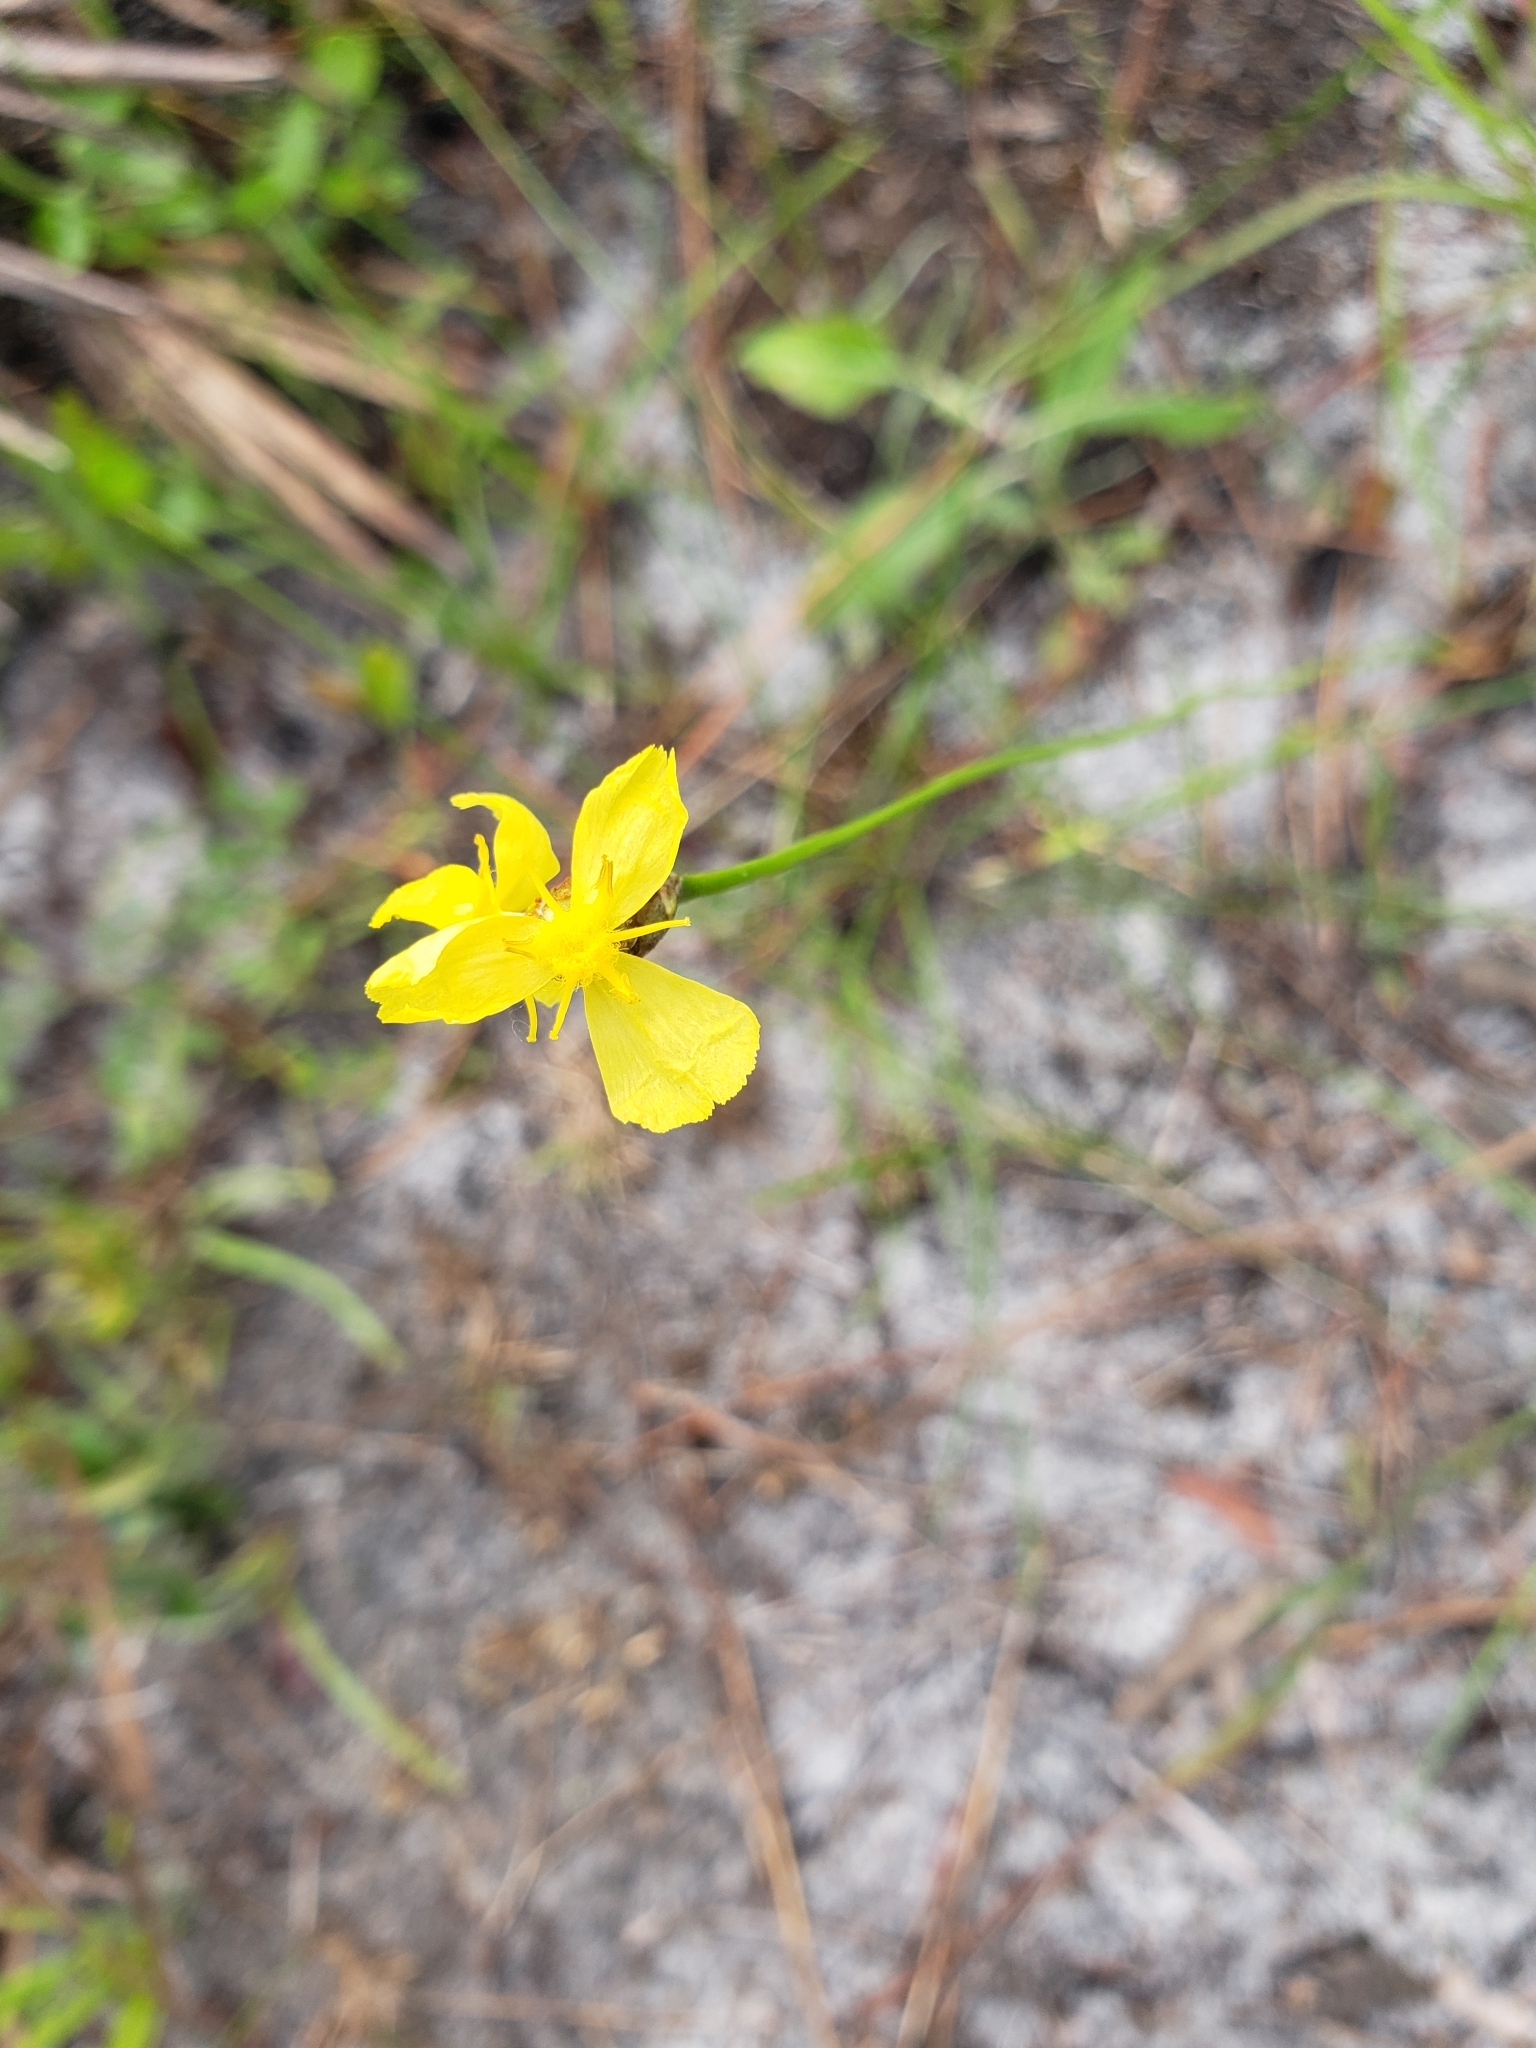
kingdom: Plantae
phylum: Tracheophyta
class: Liliopsida
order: Poales
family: Xyridaceae
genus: Xyris
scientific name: Xyris caroliniana
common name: Carolina yellow-eyed-grass
